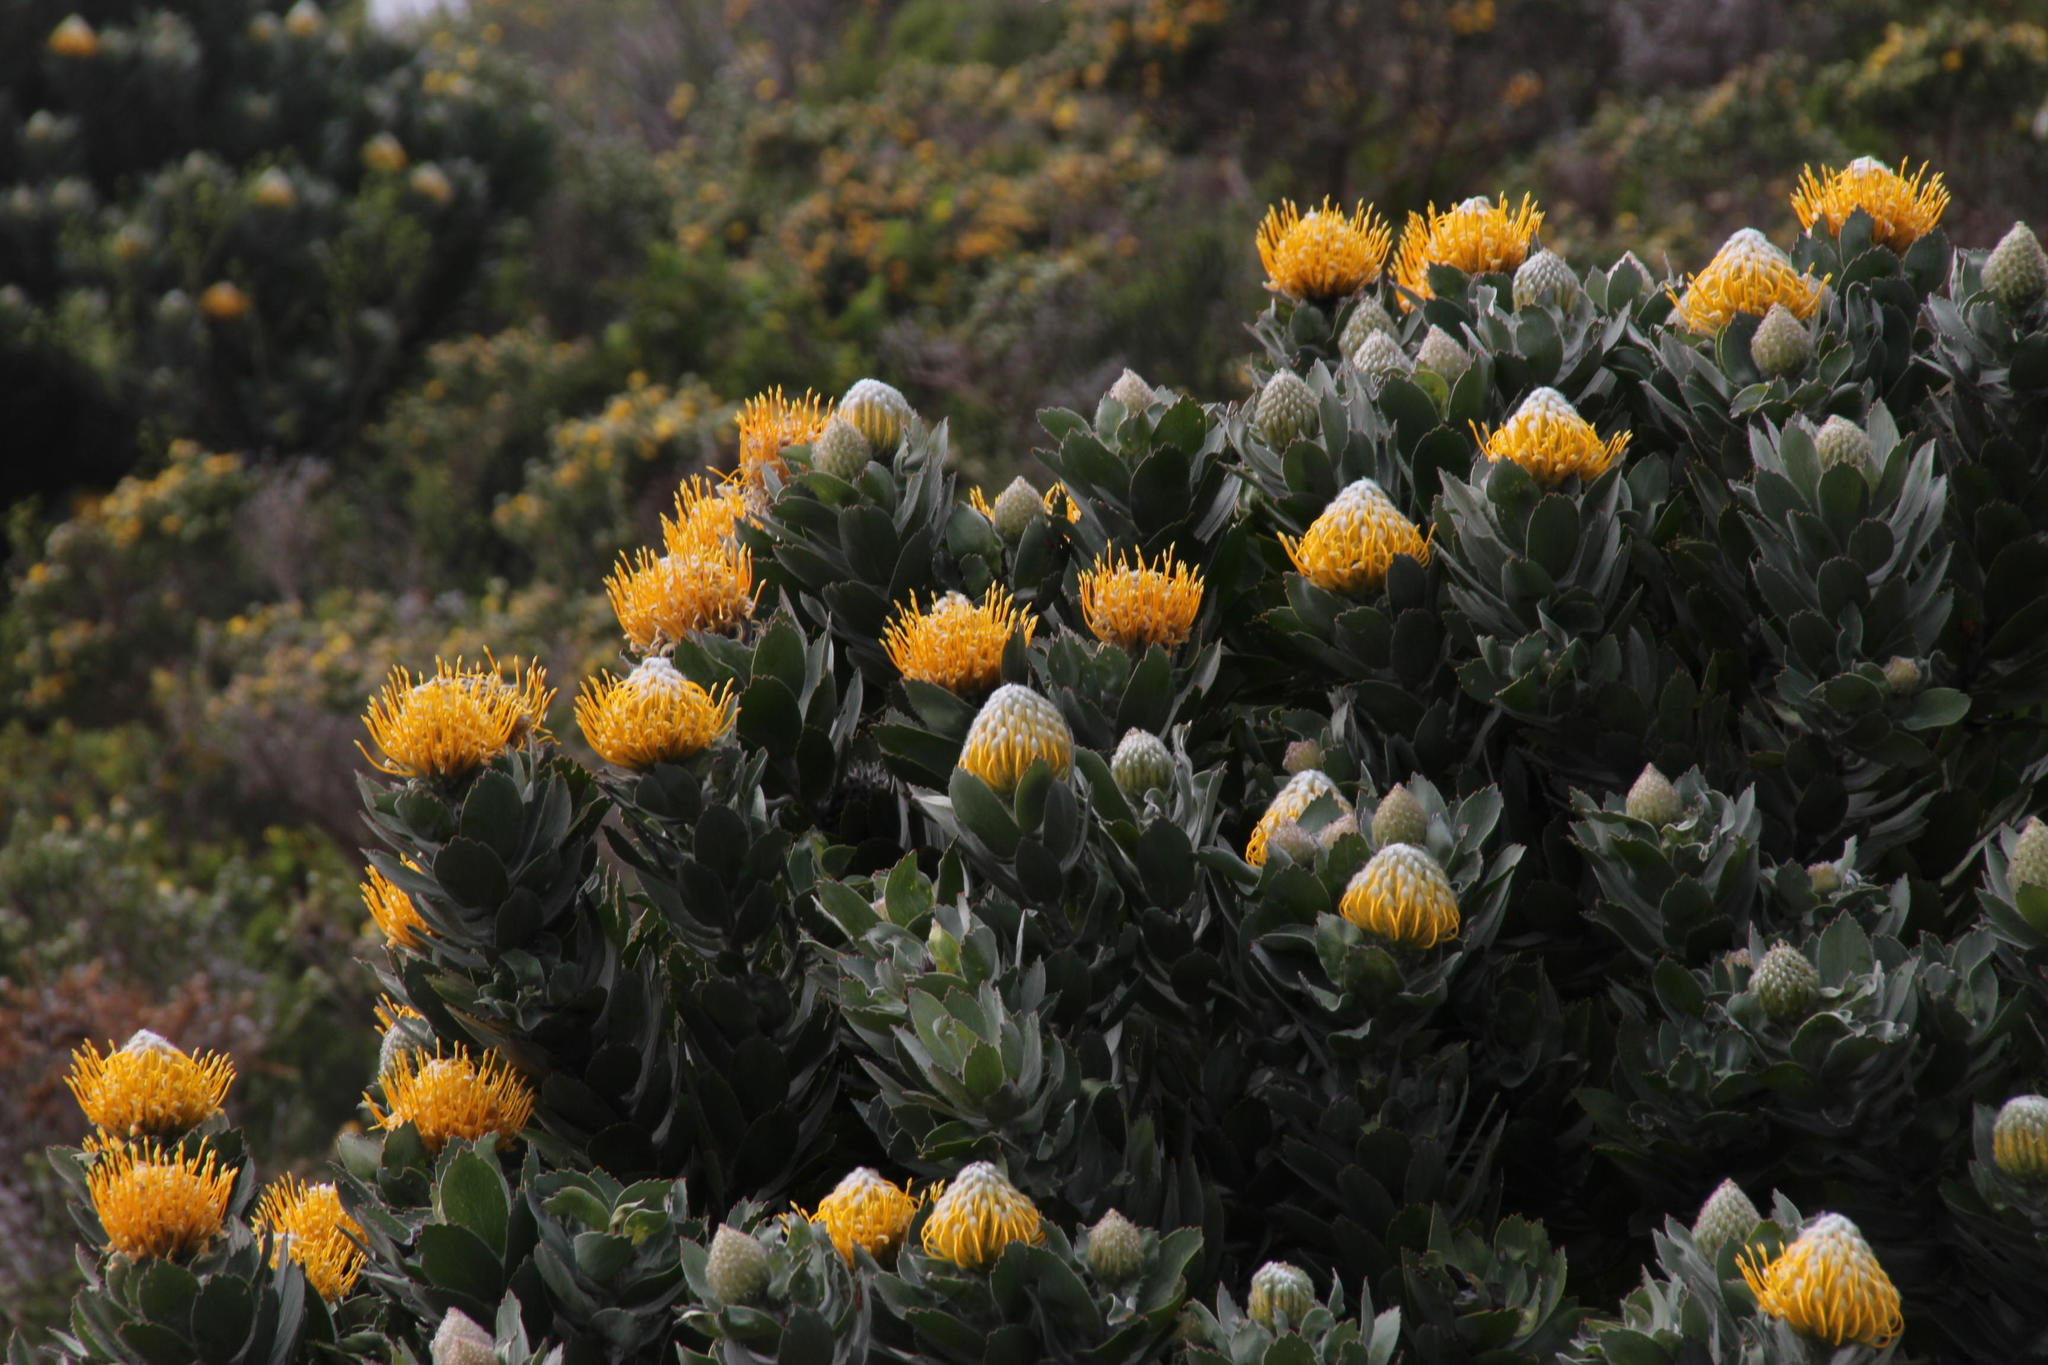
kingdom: Plantae
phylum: Tracheophyta
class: Magnoliopsida
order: Proteales
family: Proteaceae
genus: Leucospermum
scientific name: Leucospermum conocarpodendron
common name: Tree pincushion
